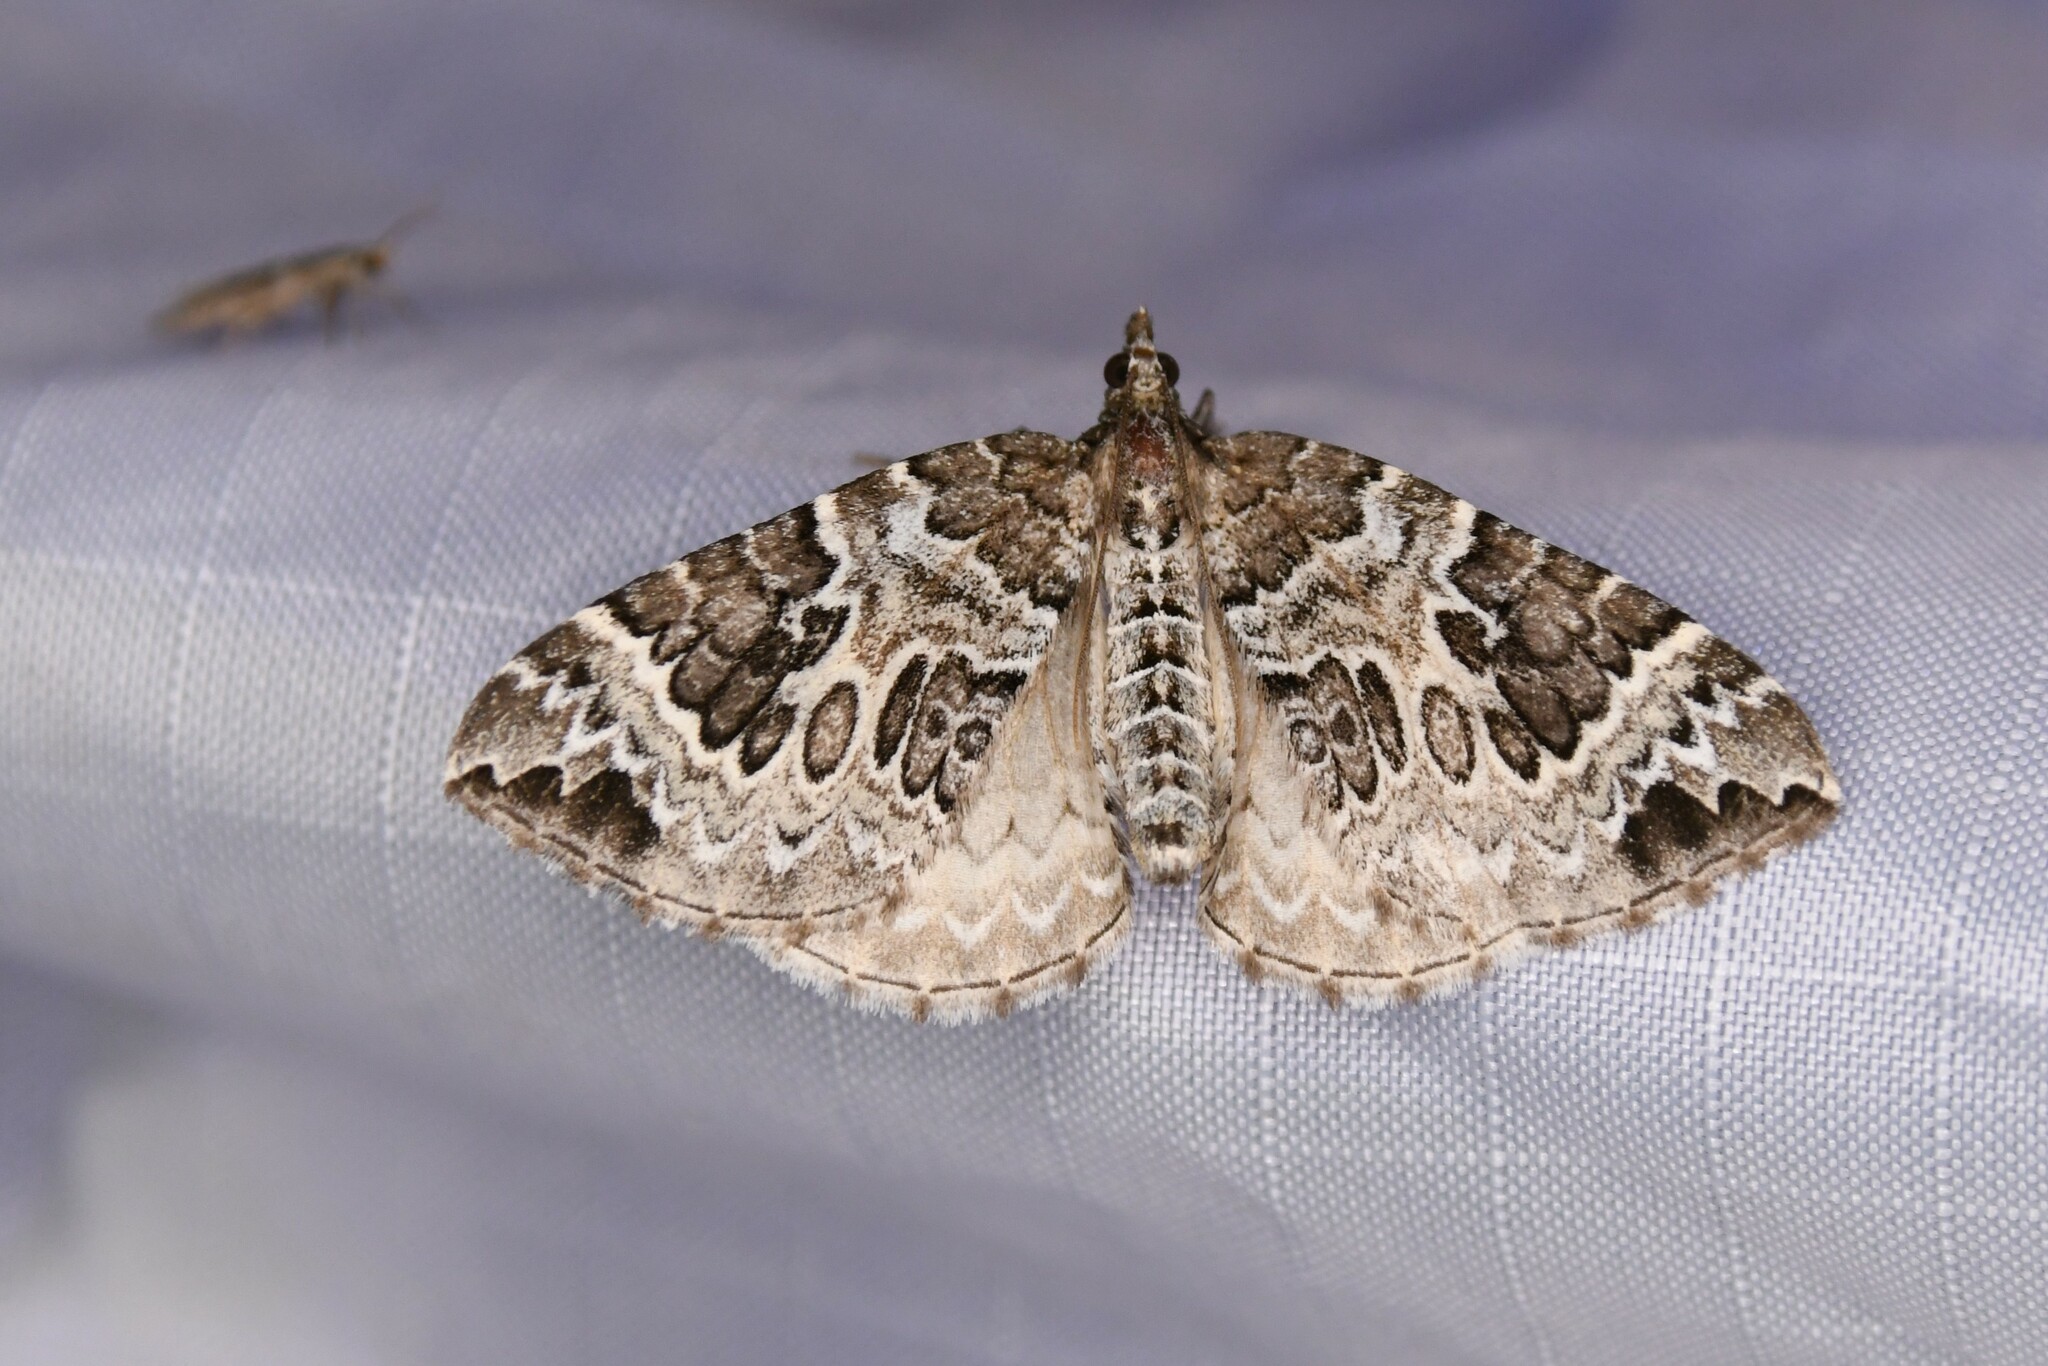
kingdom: Animalia
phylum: Arthropoda
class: Insecta
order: Lepidoptera
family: Geometridae
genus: Eulithis
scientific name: Eulithis explanata
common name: White eulithis
